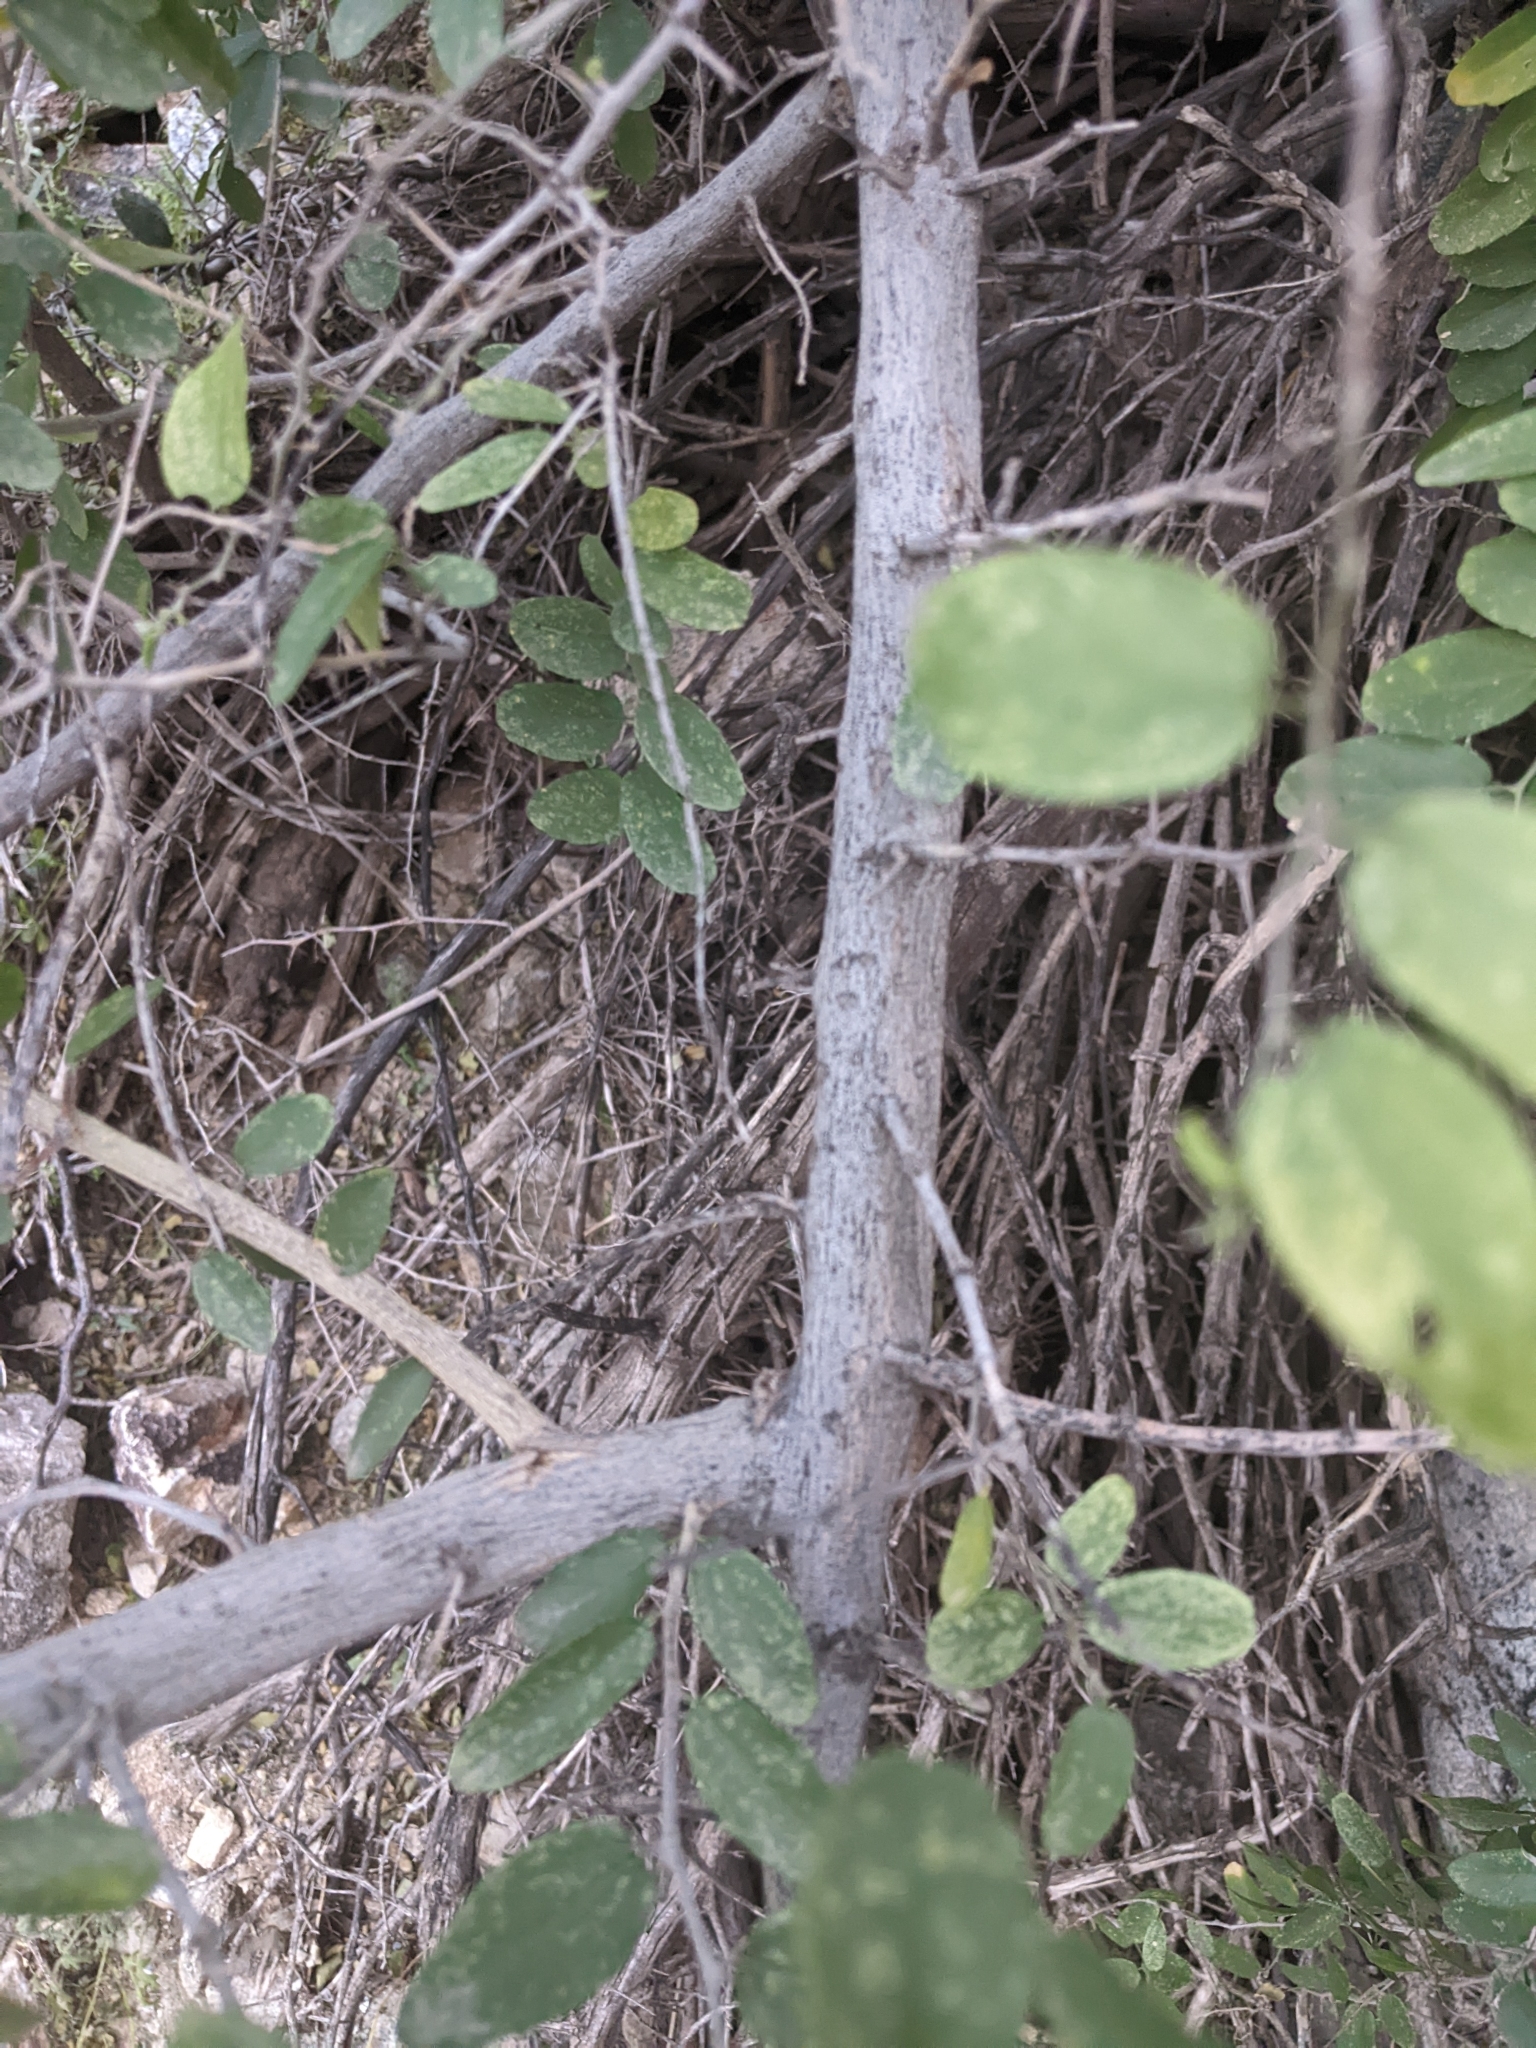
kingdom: Plantae
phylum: Tracheophyta
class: Magnoliopsida
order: Rosales
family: Cannabaceae
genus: Celtis
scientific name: Celtis pallida
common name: Desert hackberry
